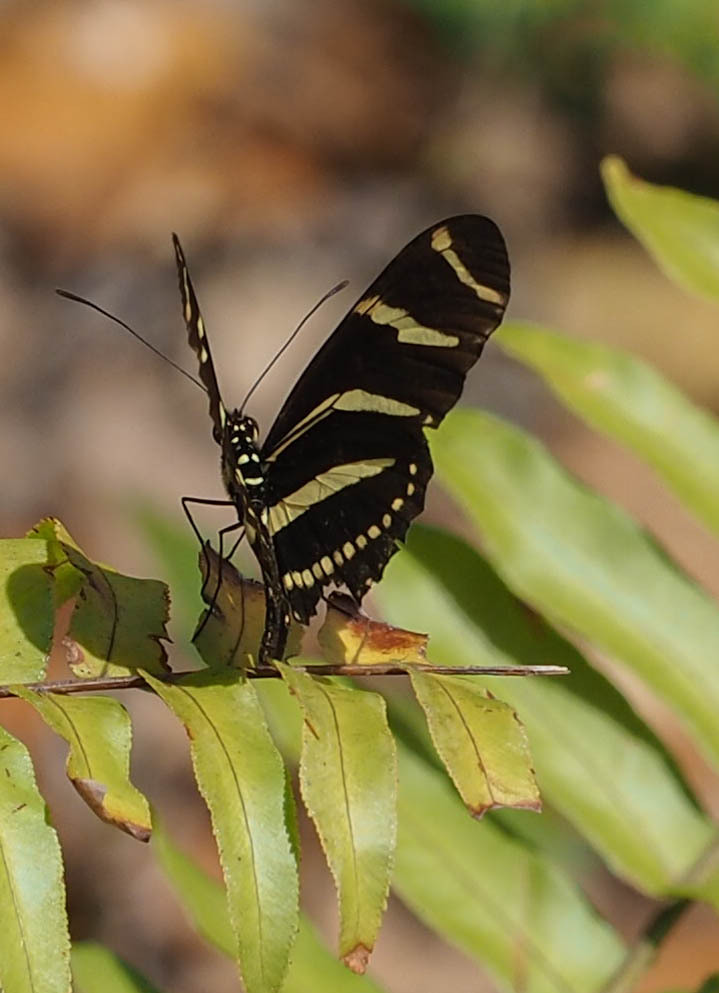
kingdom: Animalia
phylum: Arthropoda
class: Insecta
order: Lepidoptera
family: Nymphalidae
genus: Heliconius
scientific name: Heliconius charithonia
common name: Zebra long wing
